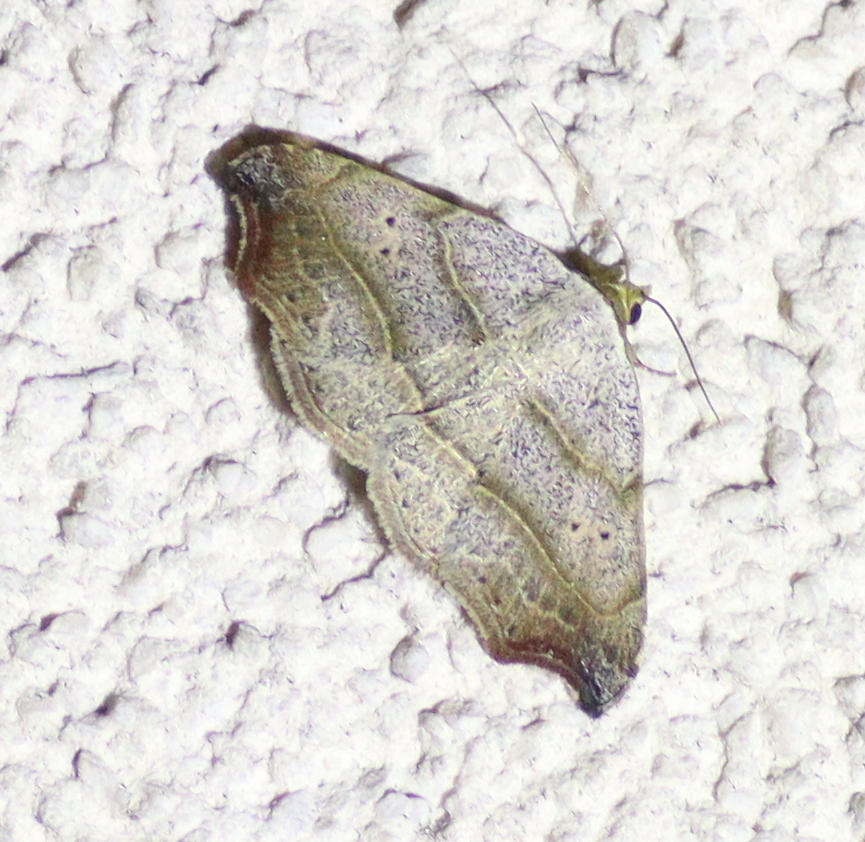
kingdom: Animalia
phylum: Arthropoda
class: Insecta
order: Lepidoptera
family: Erebidae
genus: Laspeyria
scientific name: Laspeyria flexula
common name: Beautiful hook-tip
